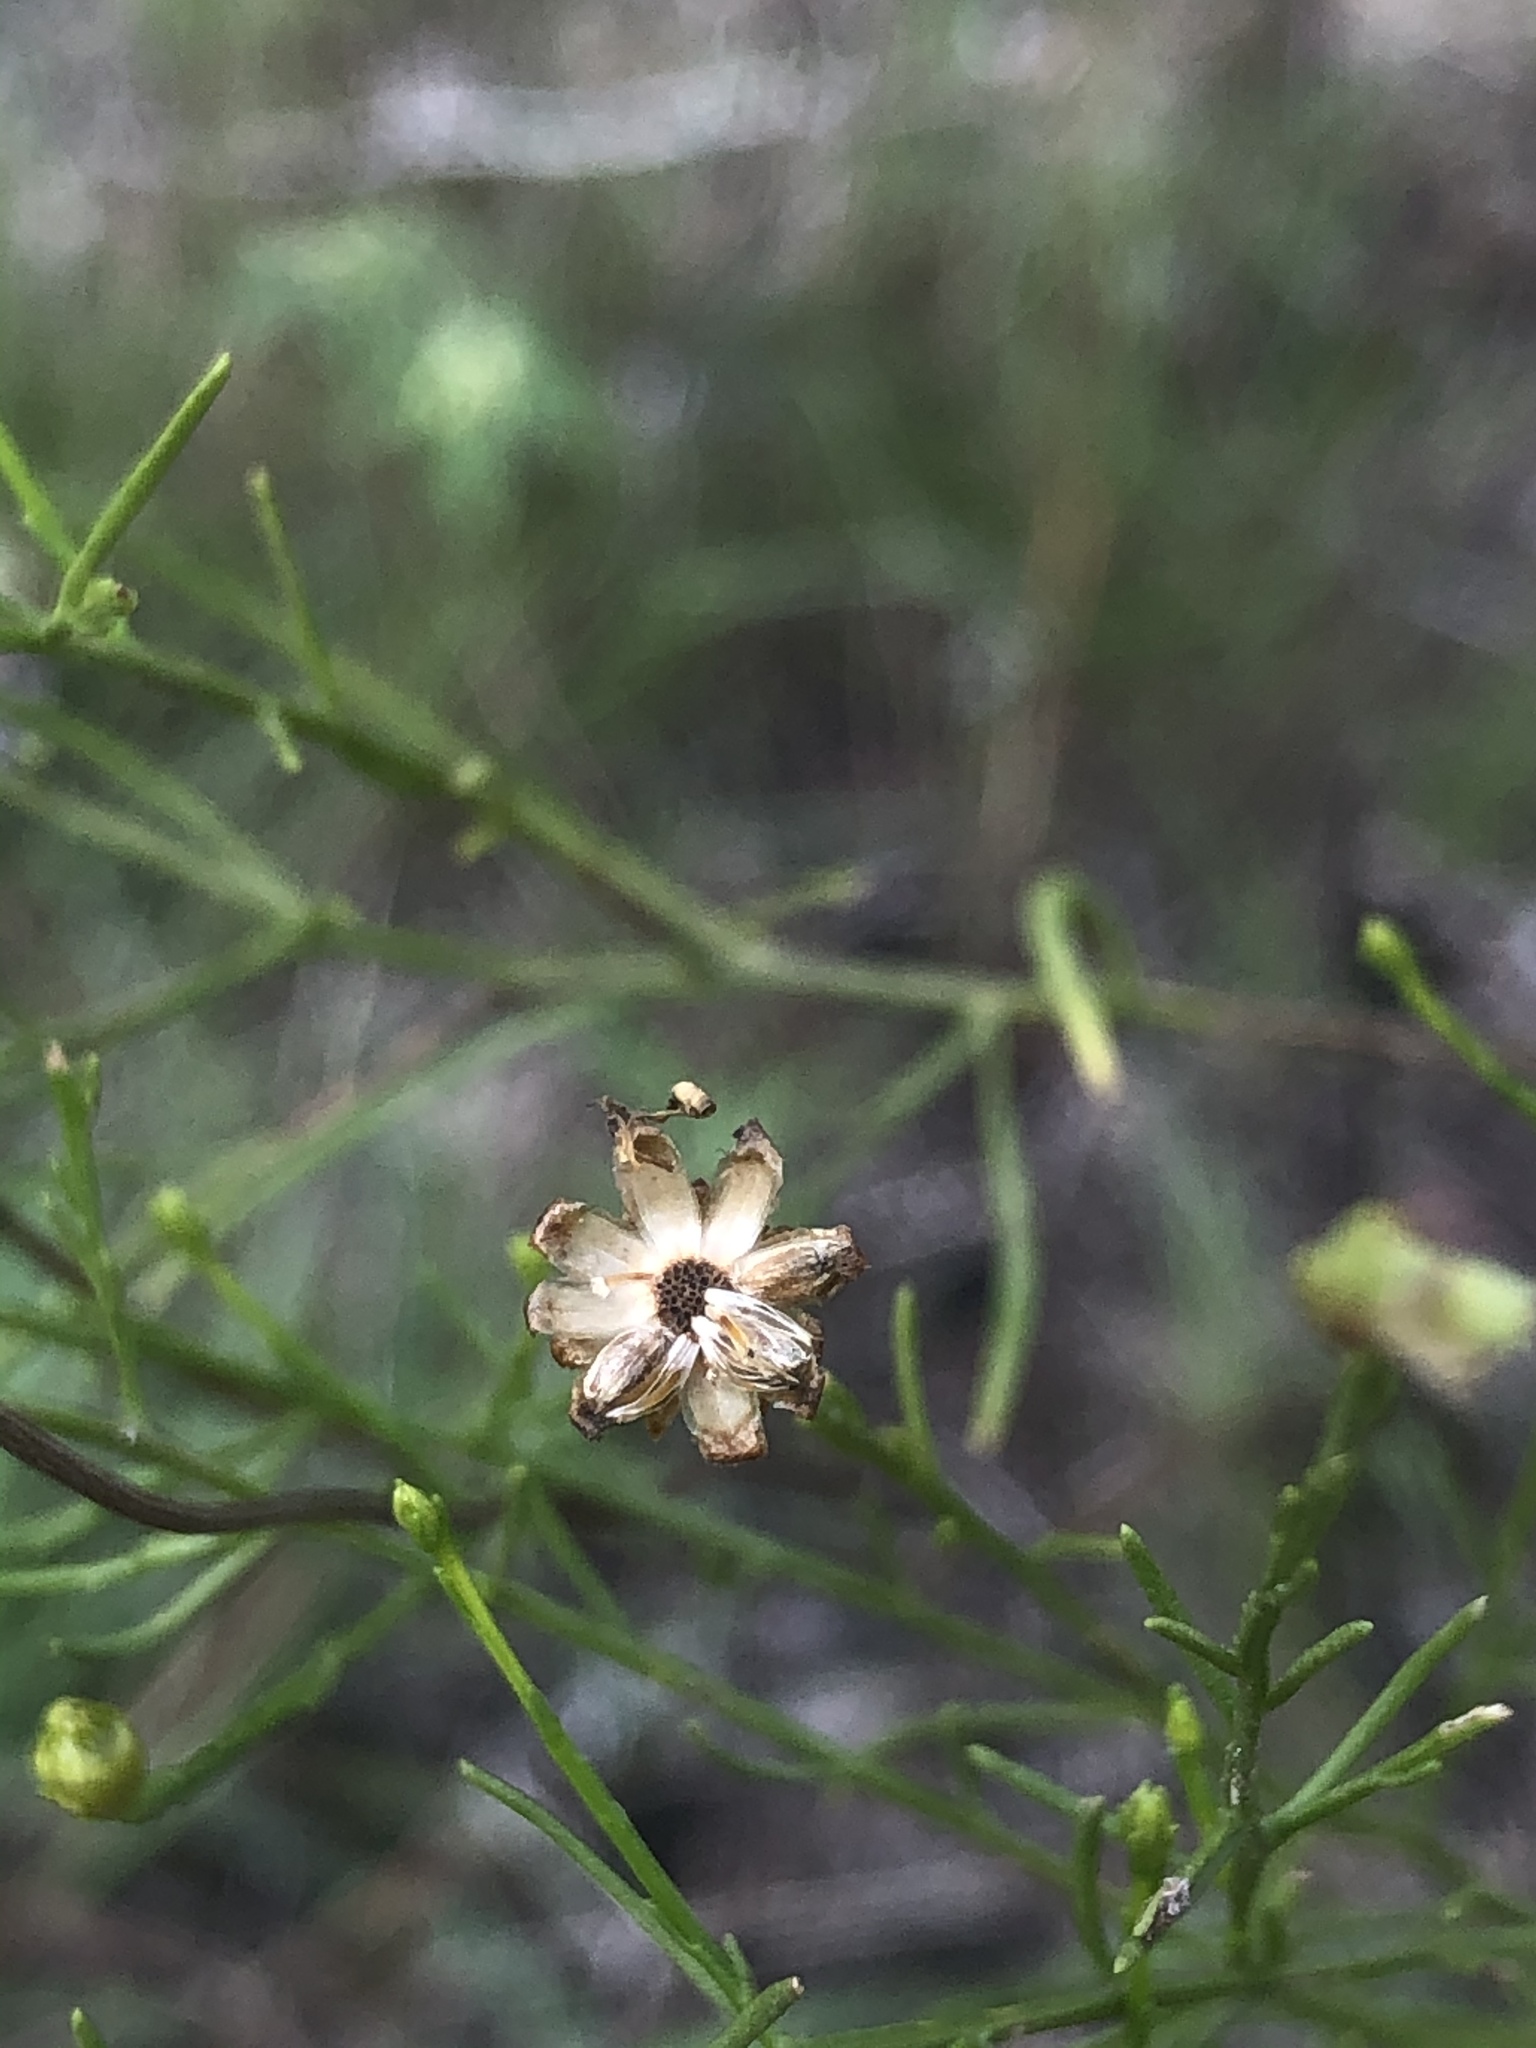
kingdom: Plantae
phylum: Tracheophyta
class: Magnoliopsida
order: Asterales
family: Asteraceae
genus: Amphiachyris
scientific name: Amphiachyris amoenum
